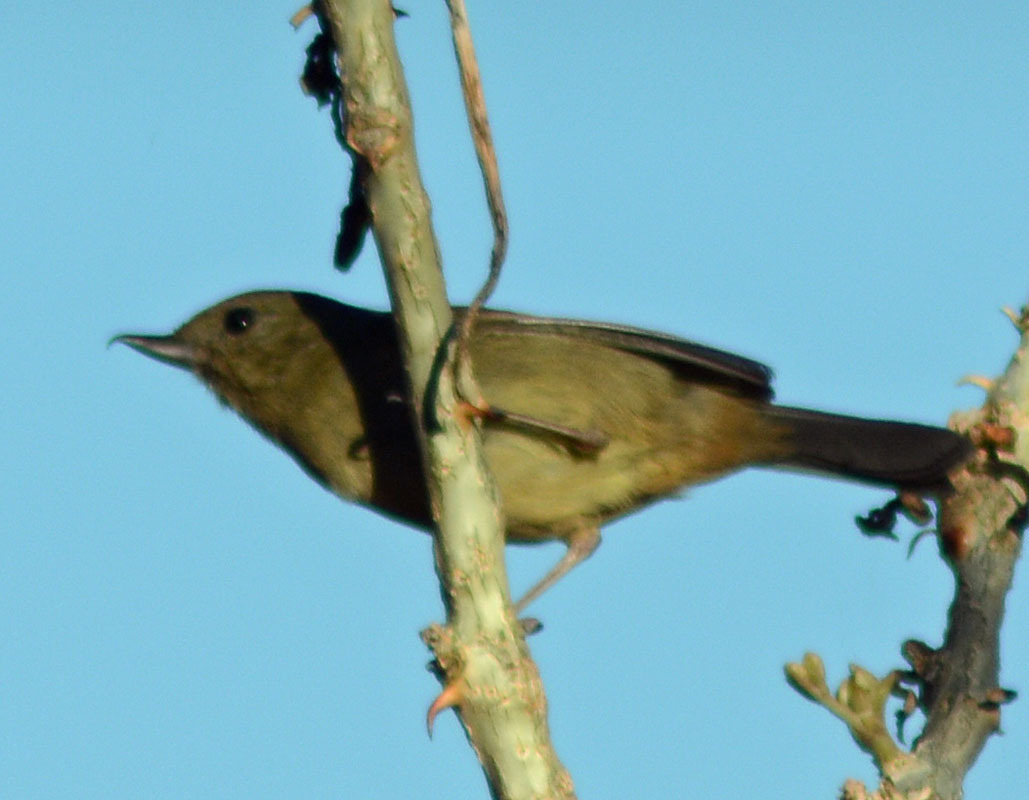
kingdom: Animalia
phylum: Chordata
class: Aves
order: Passeriformes
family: Thraupidae
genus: Diglossa
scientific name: Diglossa baritula
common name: Cinnamon-bellied flowerpiercer
